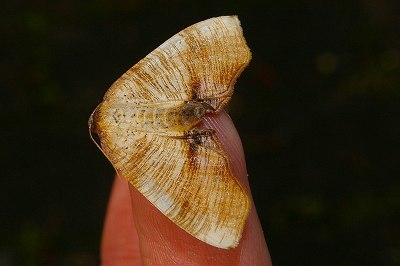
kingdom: Animalia
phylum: Arthropoda
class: Insecta
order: Lepidoptera
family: Geometridae
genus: Plagodis
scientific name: Plagodis dolabraria
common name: Scorched wing
